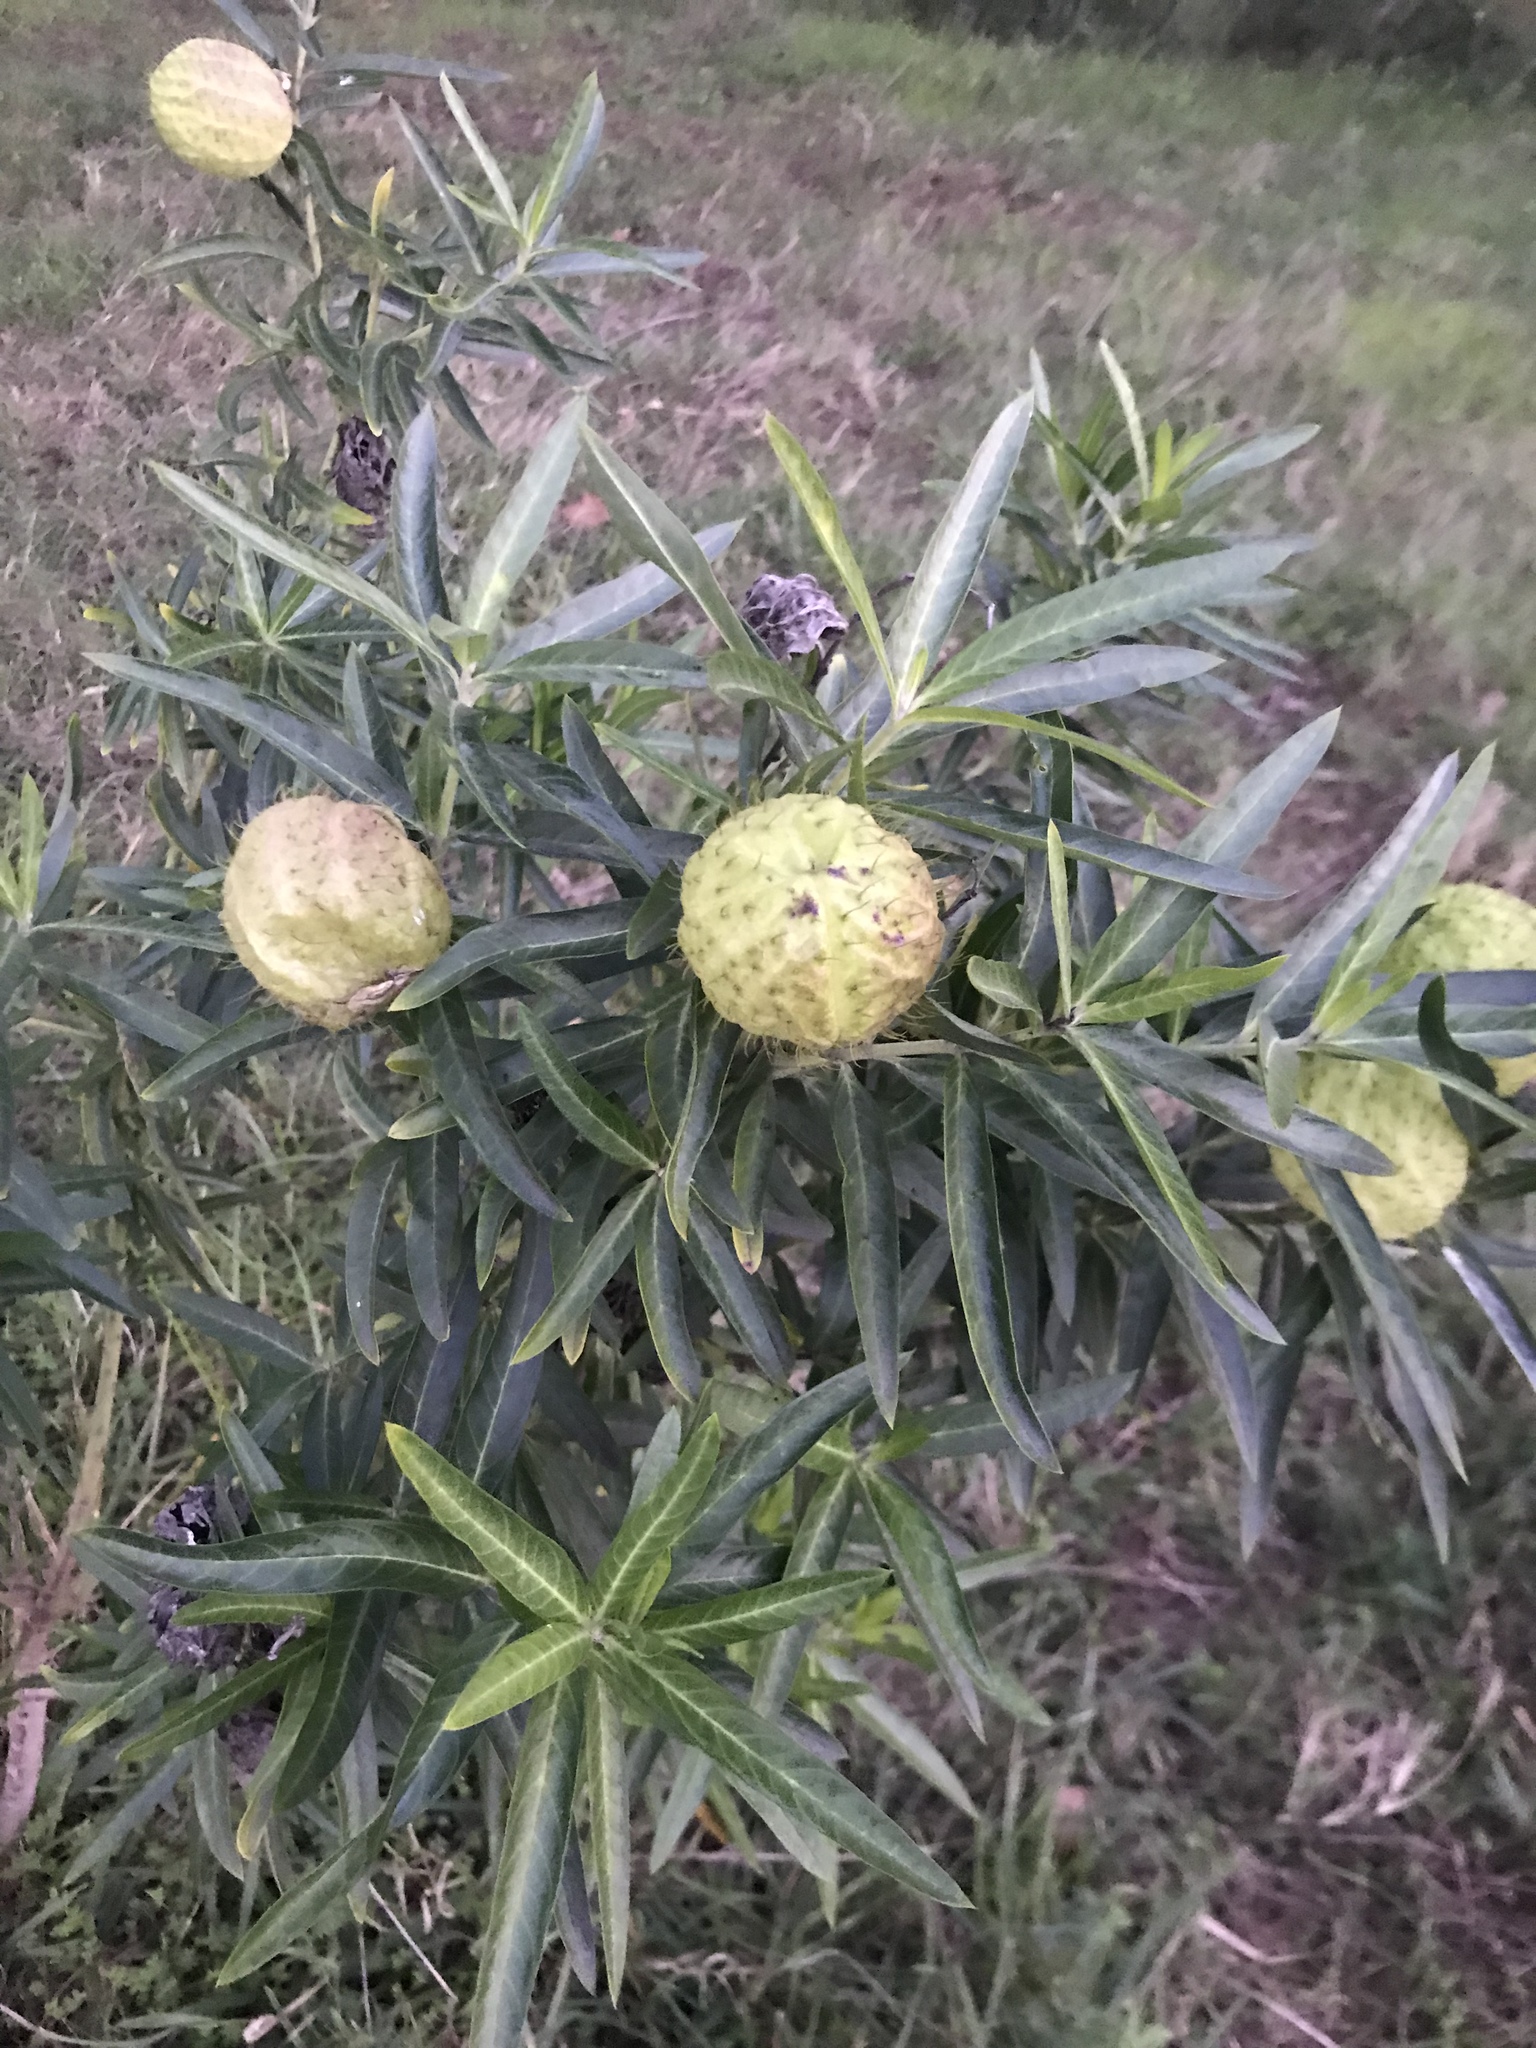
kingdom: Plantae
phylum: Tracheophyta
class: Magnoliopsida
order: Gentianales
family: Apocynaceae
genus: Gomphocarpus
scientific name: Gomphocarpus physocarpus
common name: Balloon cotton bush
